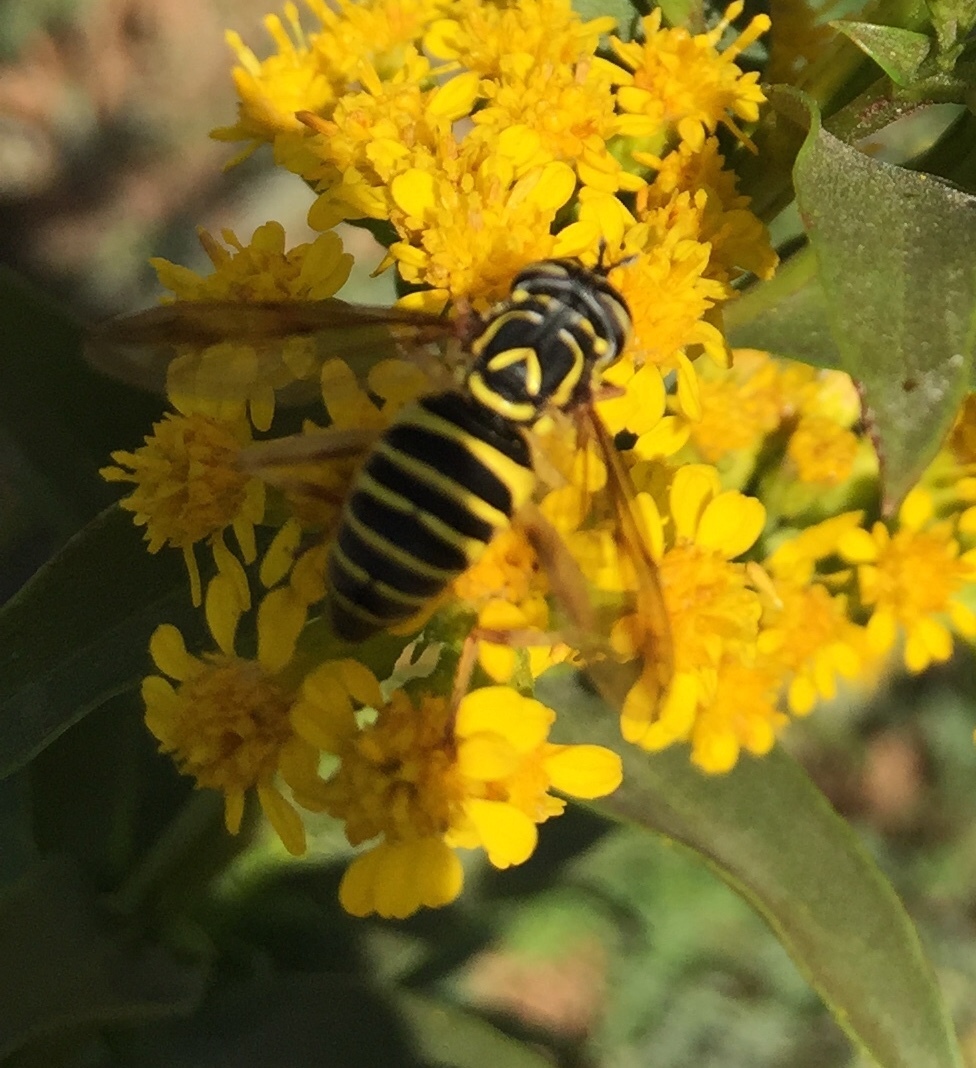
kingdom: Animalia
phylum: Arthropoda
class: Insecta
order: Diptera
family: Syrphidae
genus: Spilomyia
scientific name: Spilomyia longicornis
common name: Eastern hornet fly
